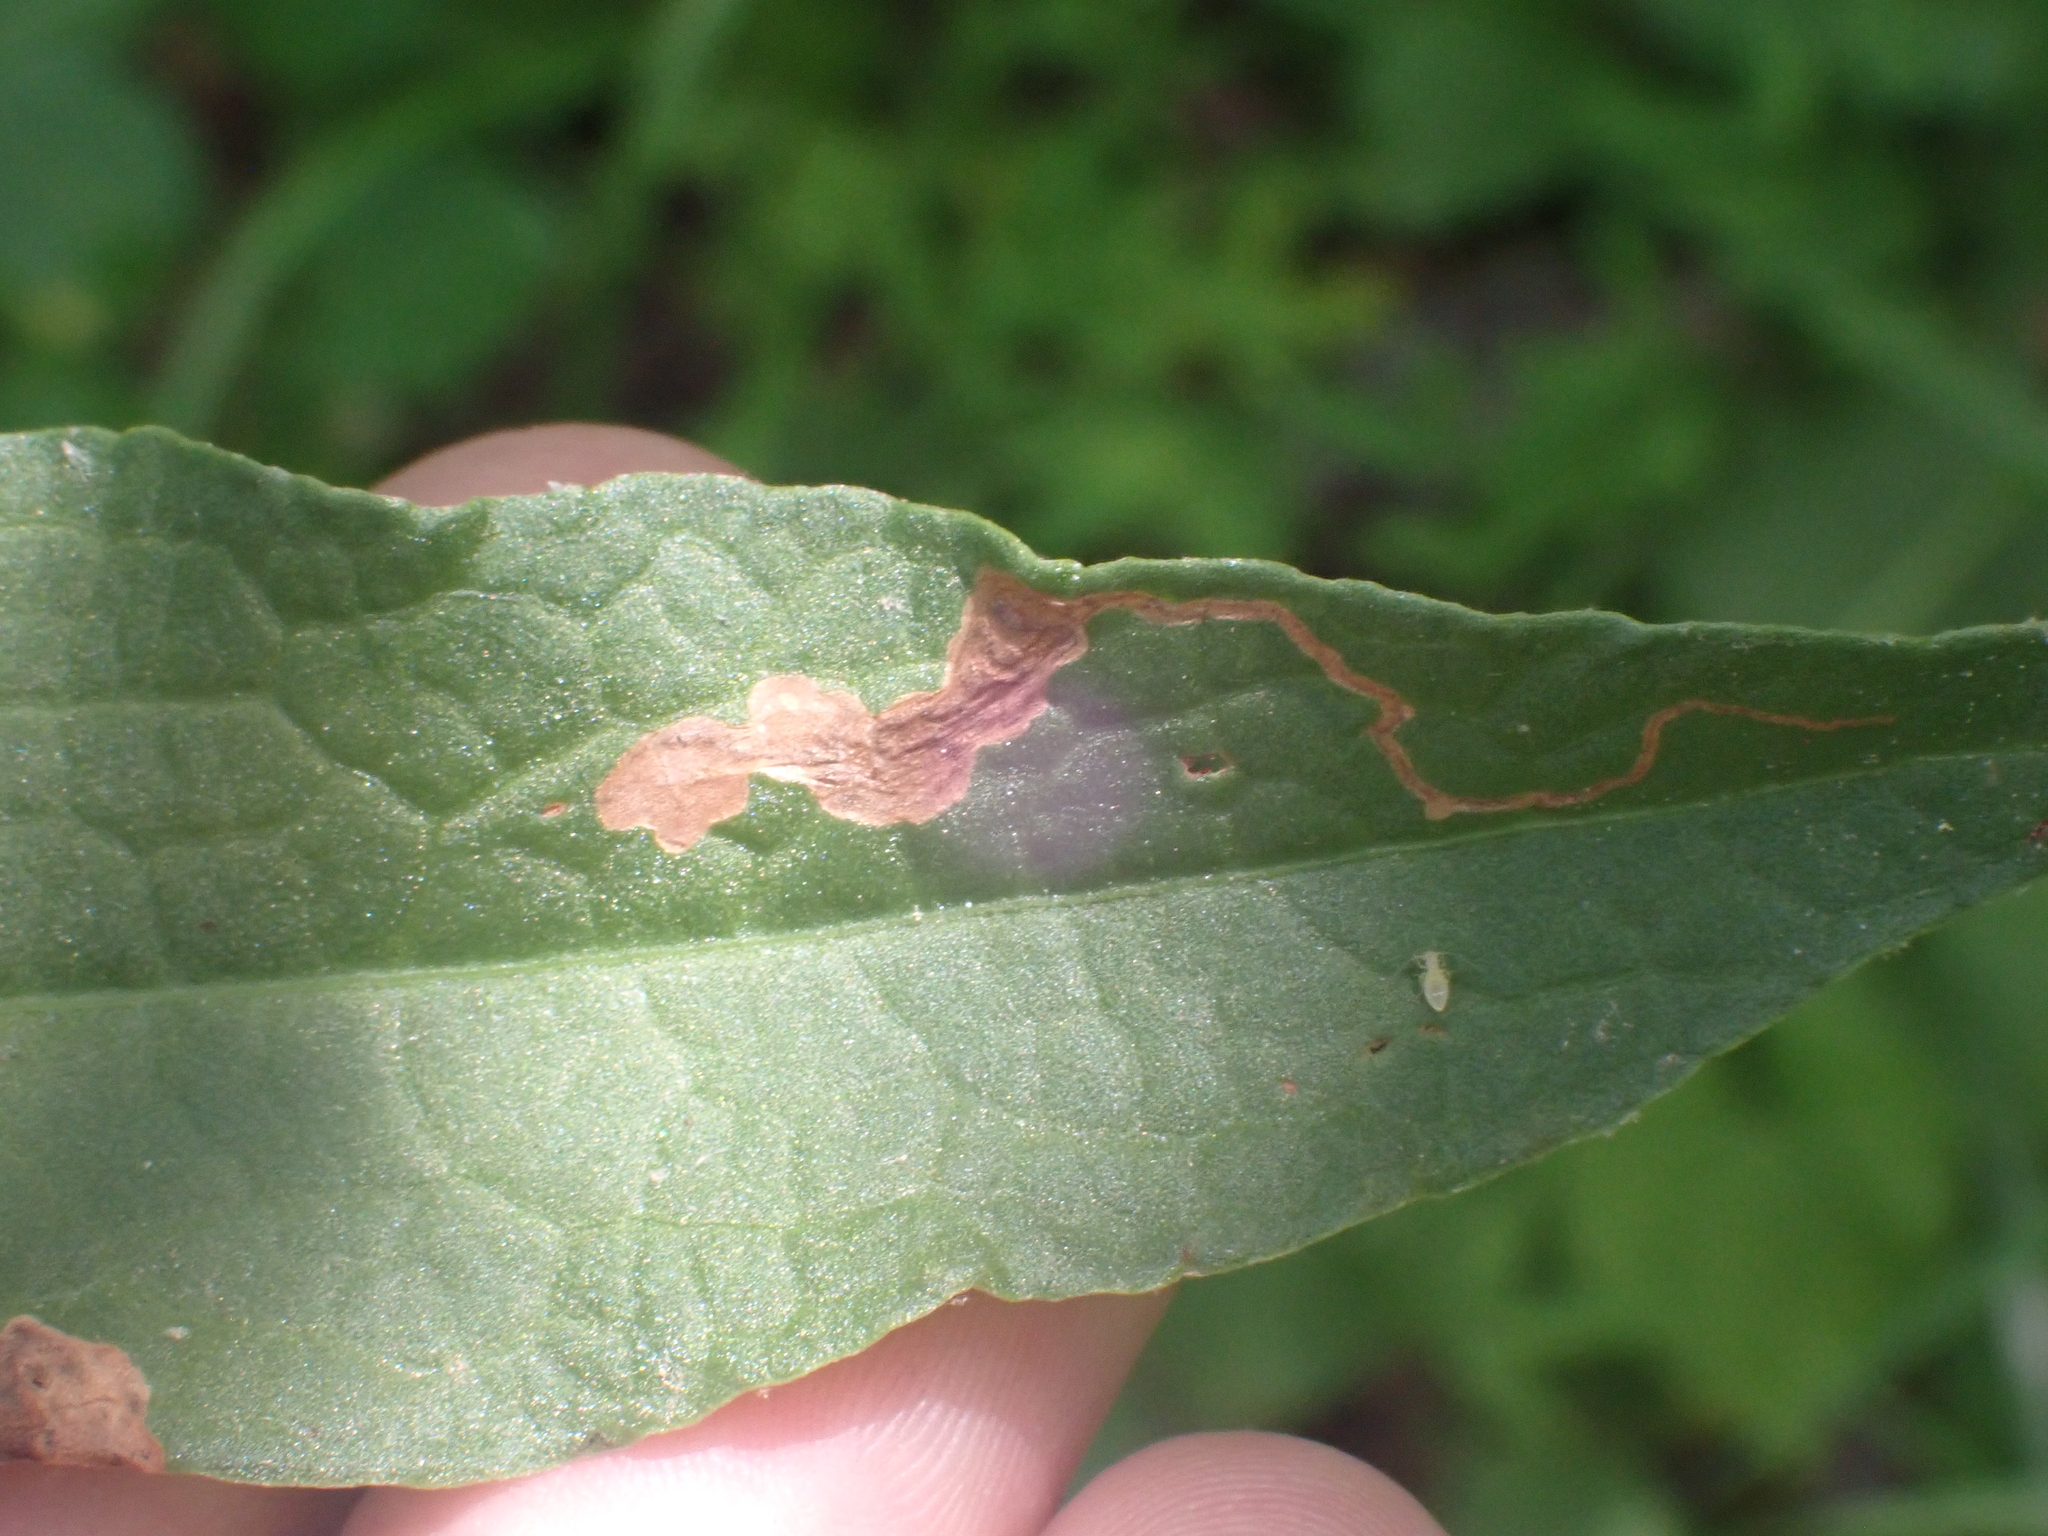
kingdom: Animalia
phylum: Arthropoda
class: Insecta
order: Coleoptera
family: Chrysomelidae
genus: Mantura
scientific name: Mantura floridana
